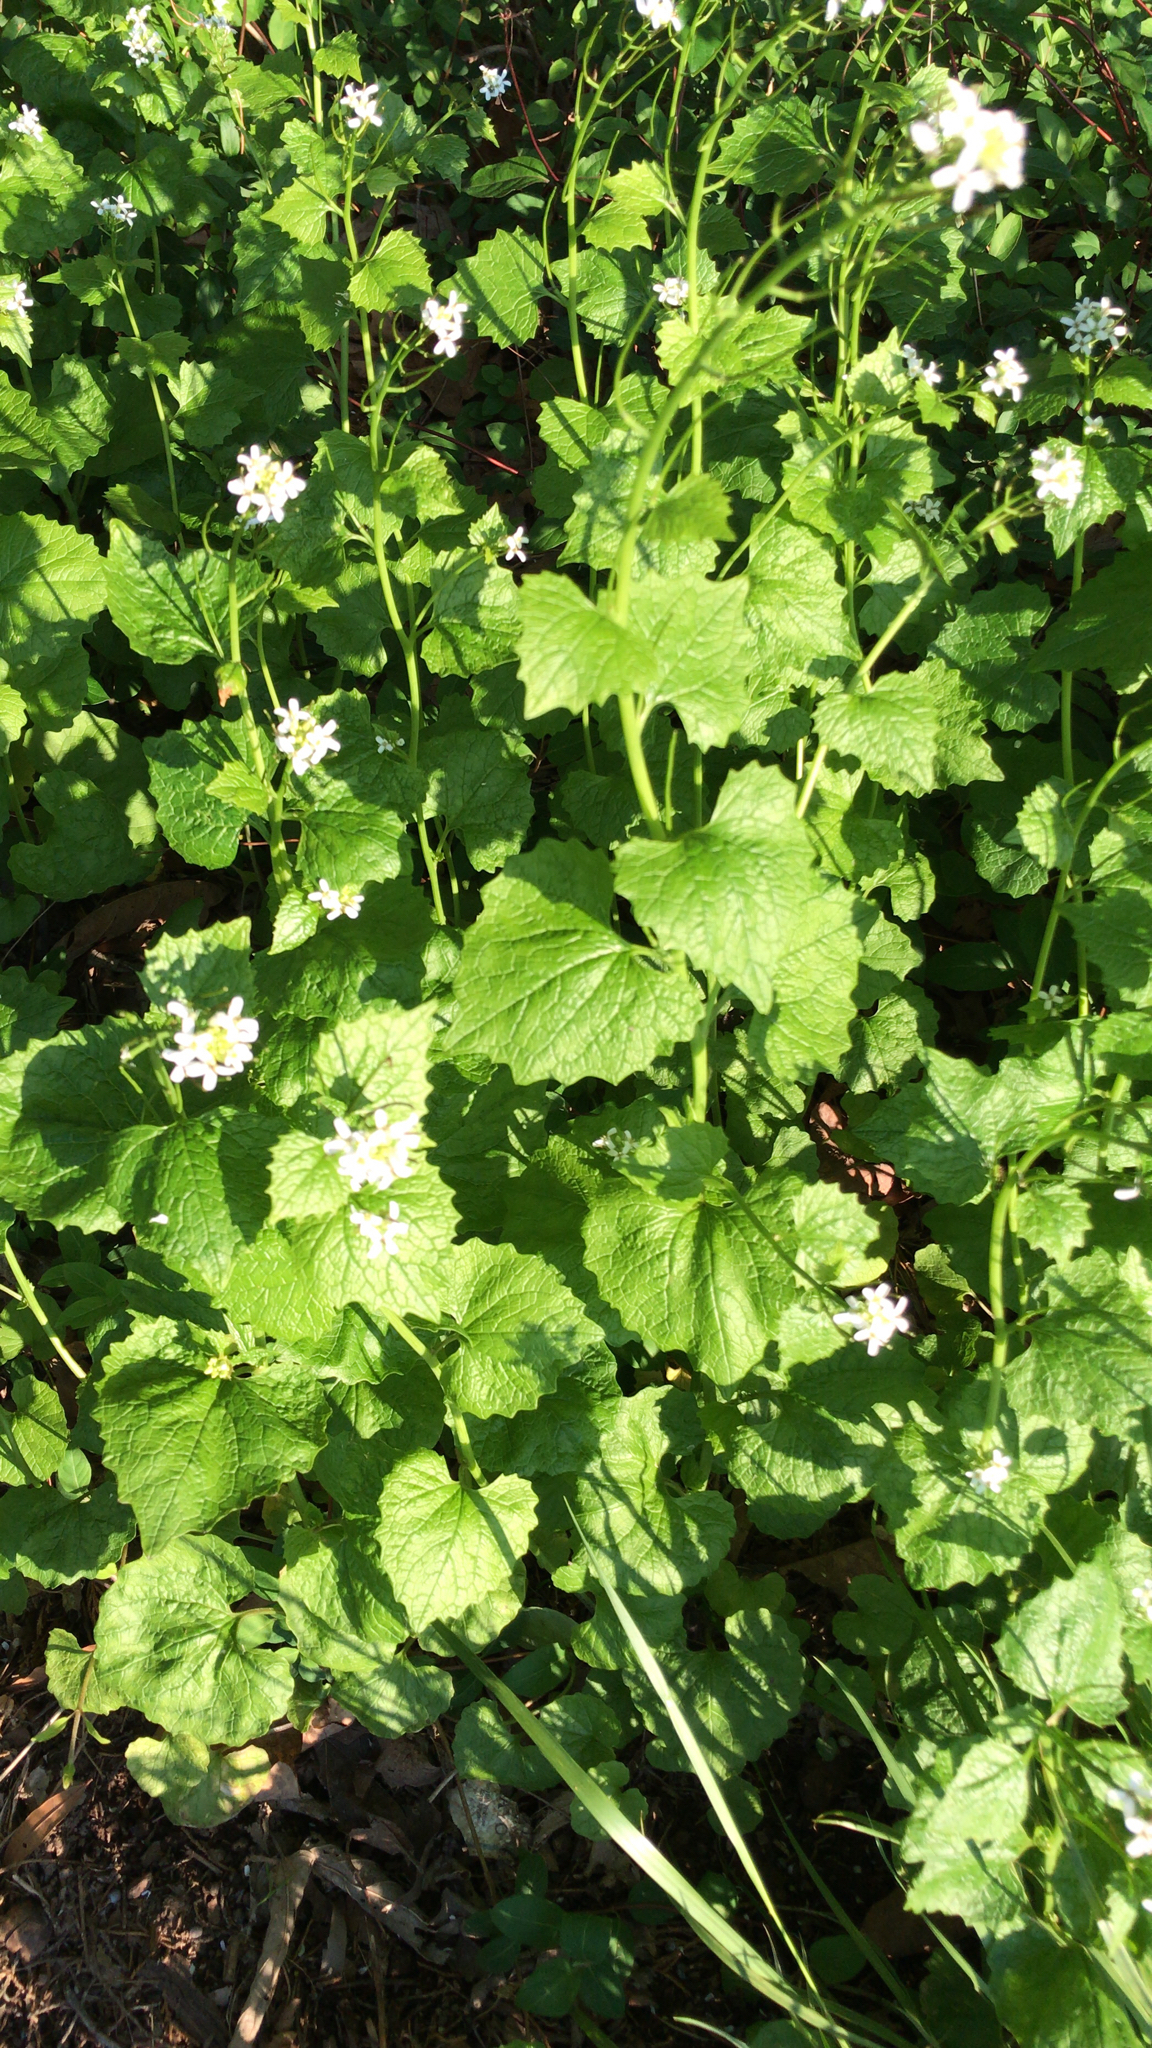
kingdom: Plantae
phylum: Tracheophyta
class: Magnoliopsida
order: Brassicales
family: Brassicaceae
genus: Alliaria
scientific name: Alliaria petiolata
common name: Garlic mustard
